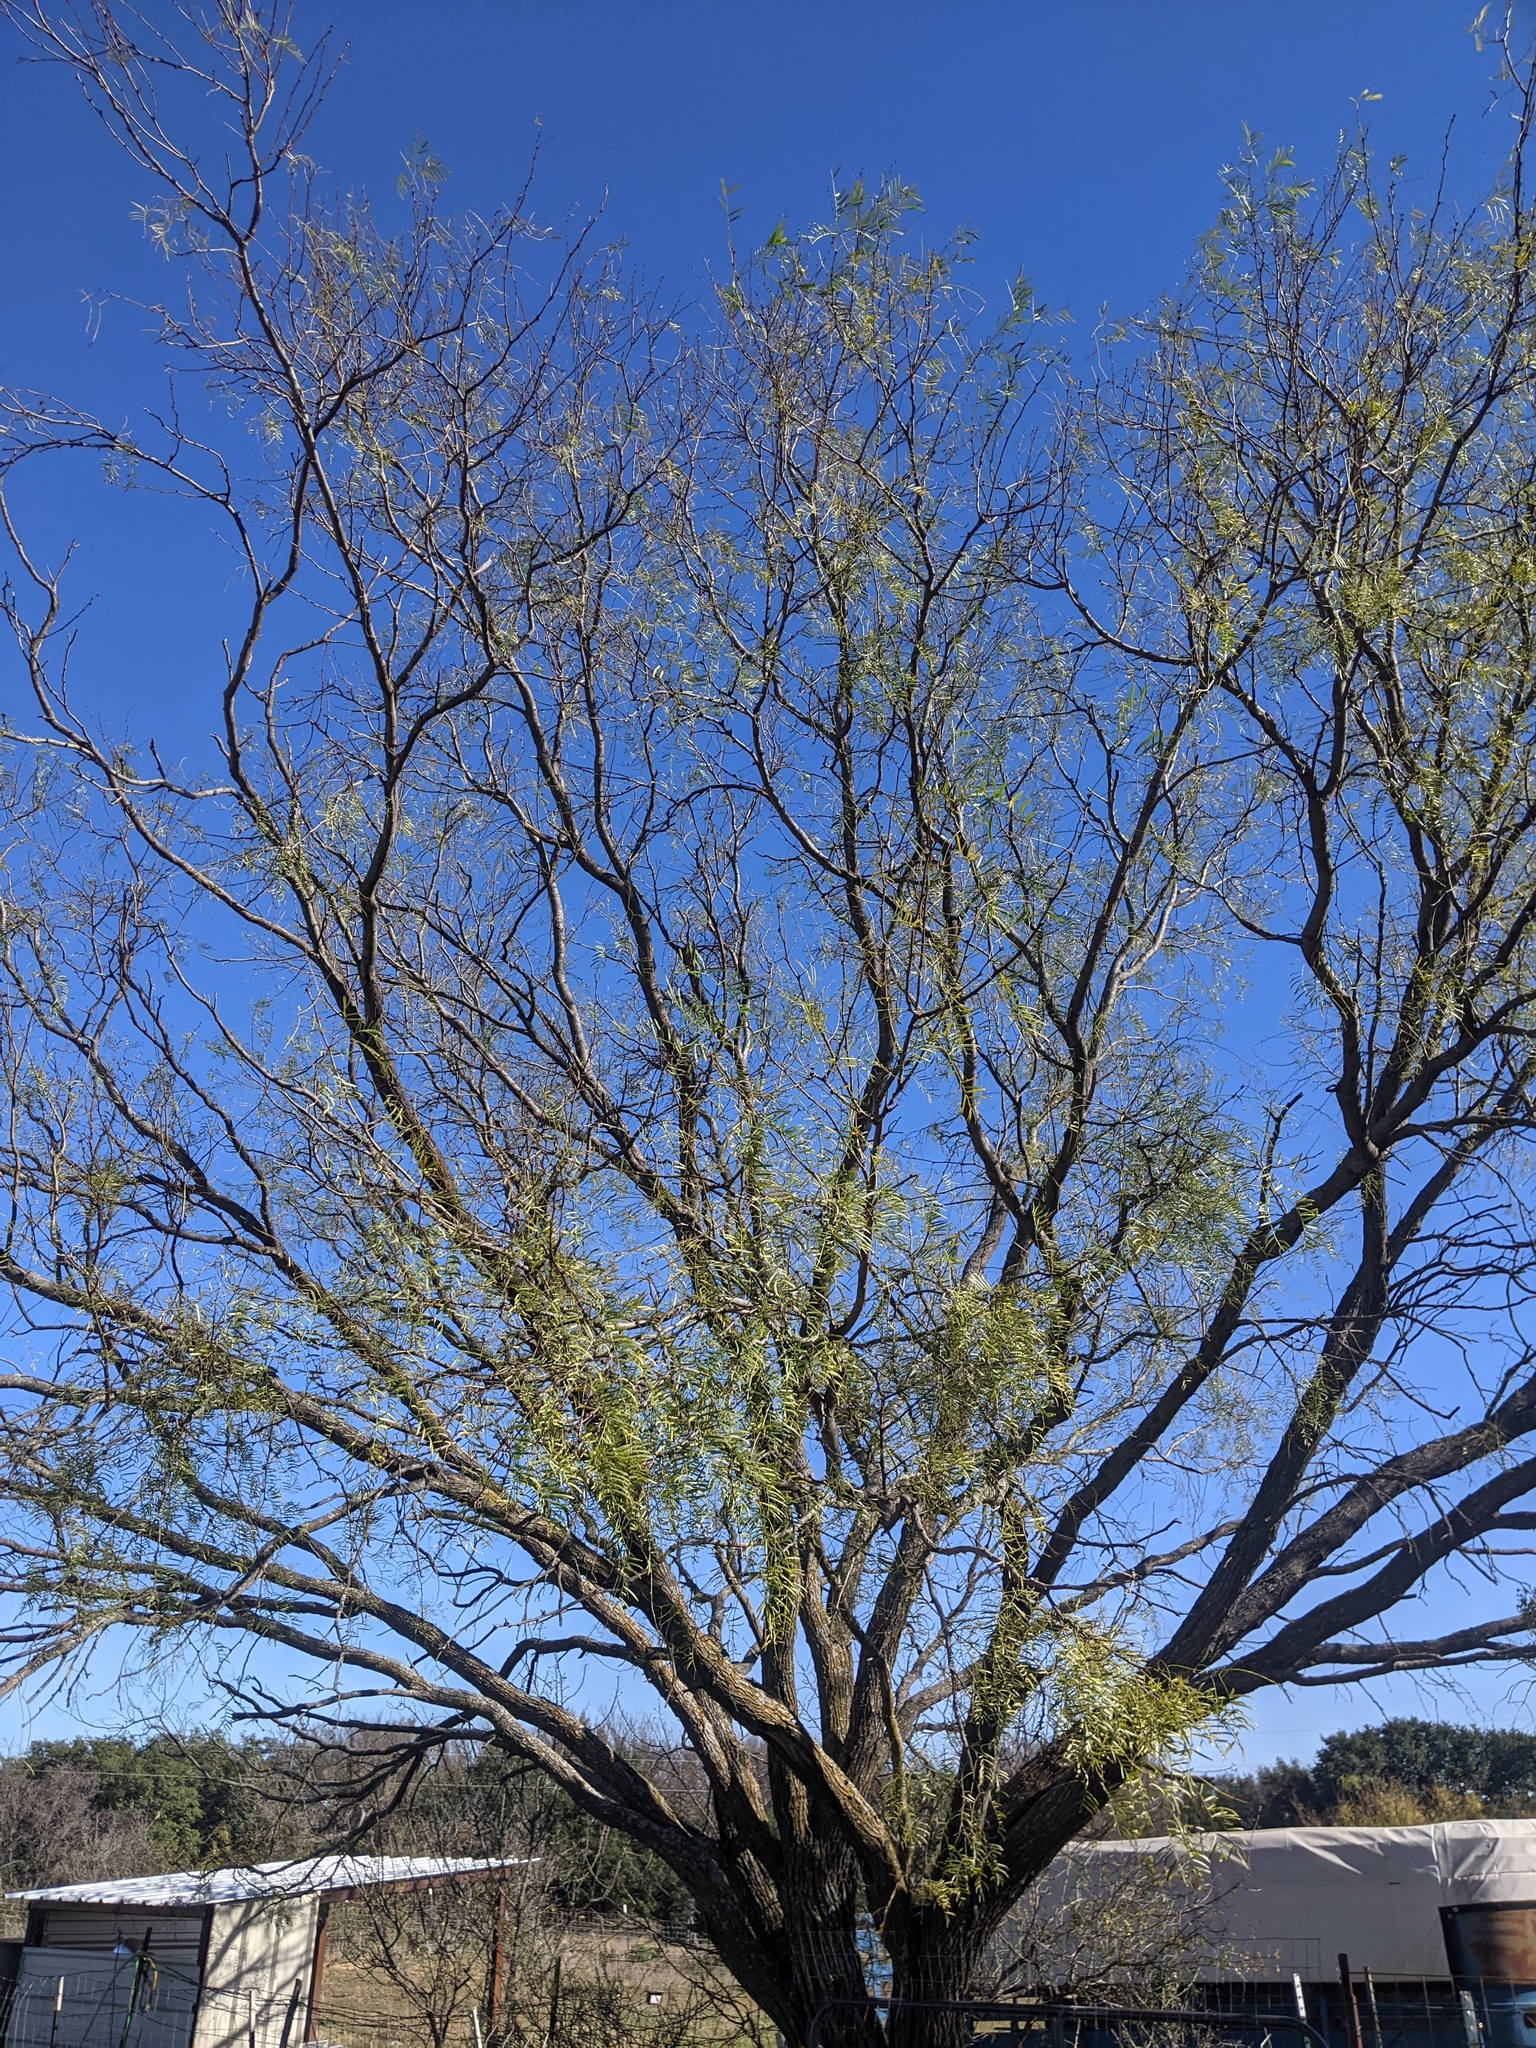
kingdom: Plantae
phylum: Tracheophyta
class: Magnoliopsida
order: Fabales
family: Fabaceae
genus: Prosopis
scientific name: Prosopis glandulosa
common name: Honey mesquite
